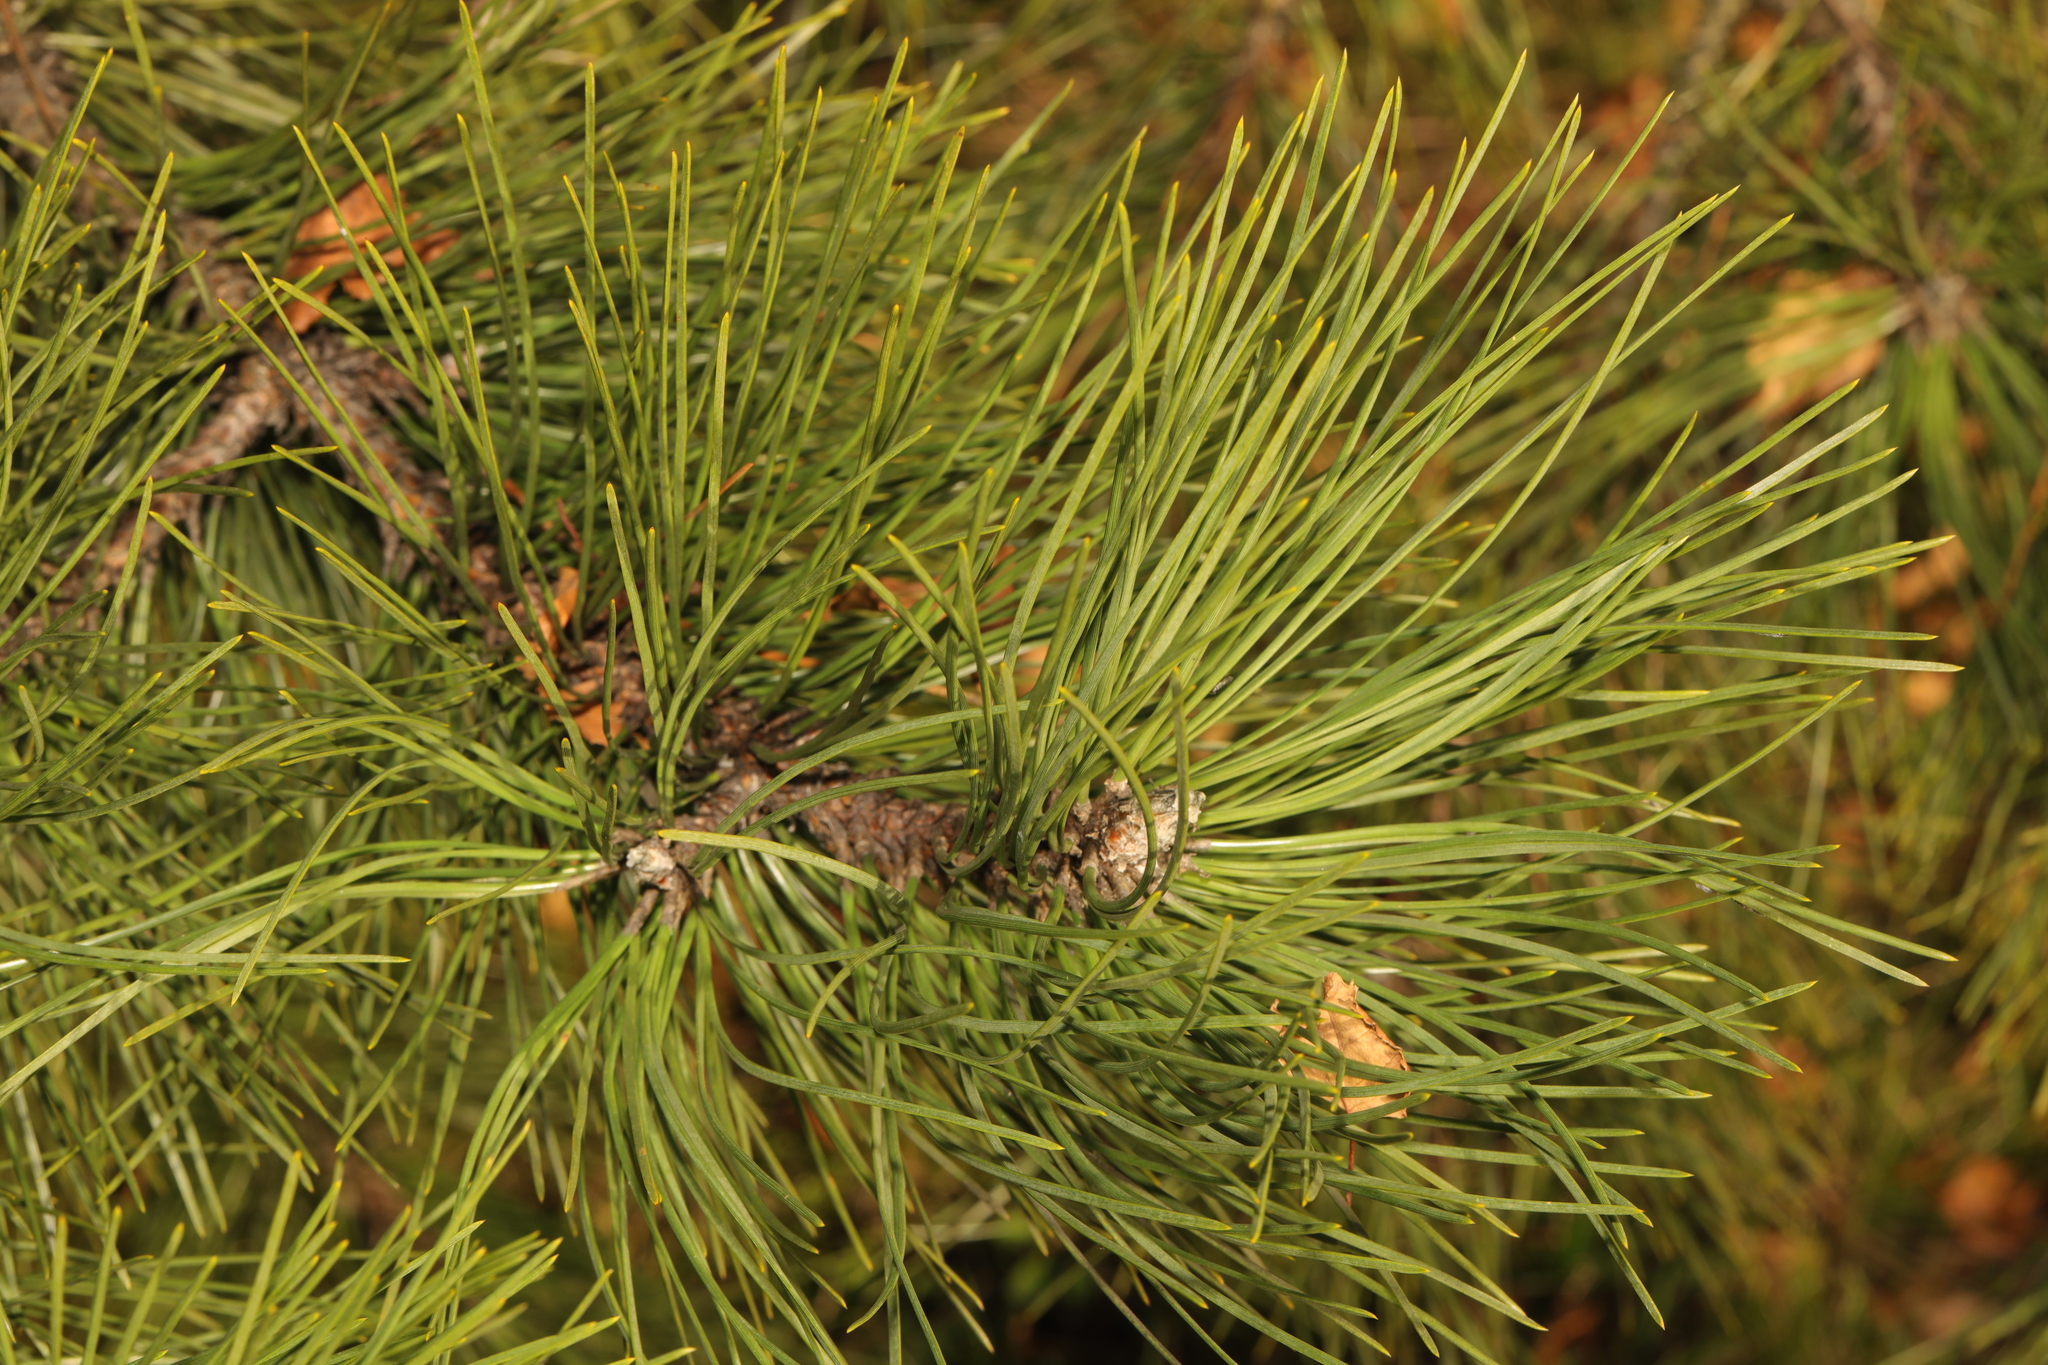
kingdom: Plantae
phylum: Tracheophyta
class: Pinopsida
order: Pinales
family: Pinaceae
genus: Pinus
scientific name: Pinus sylvestris
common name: Scots pine
